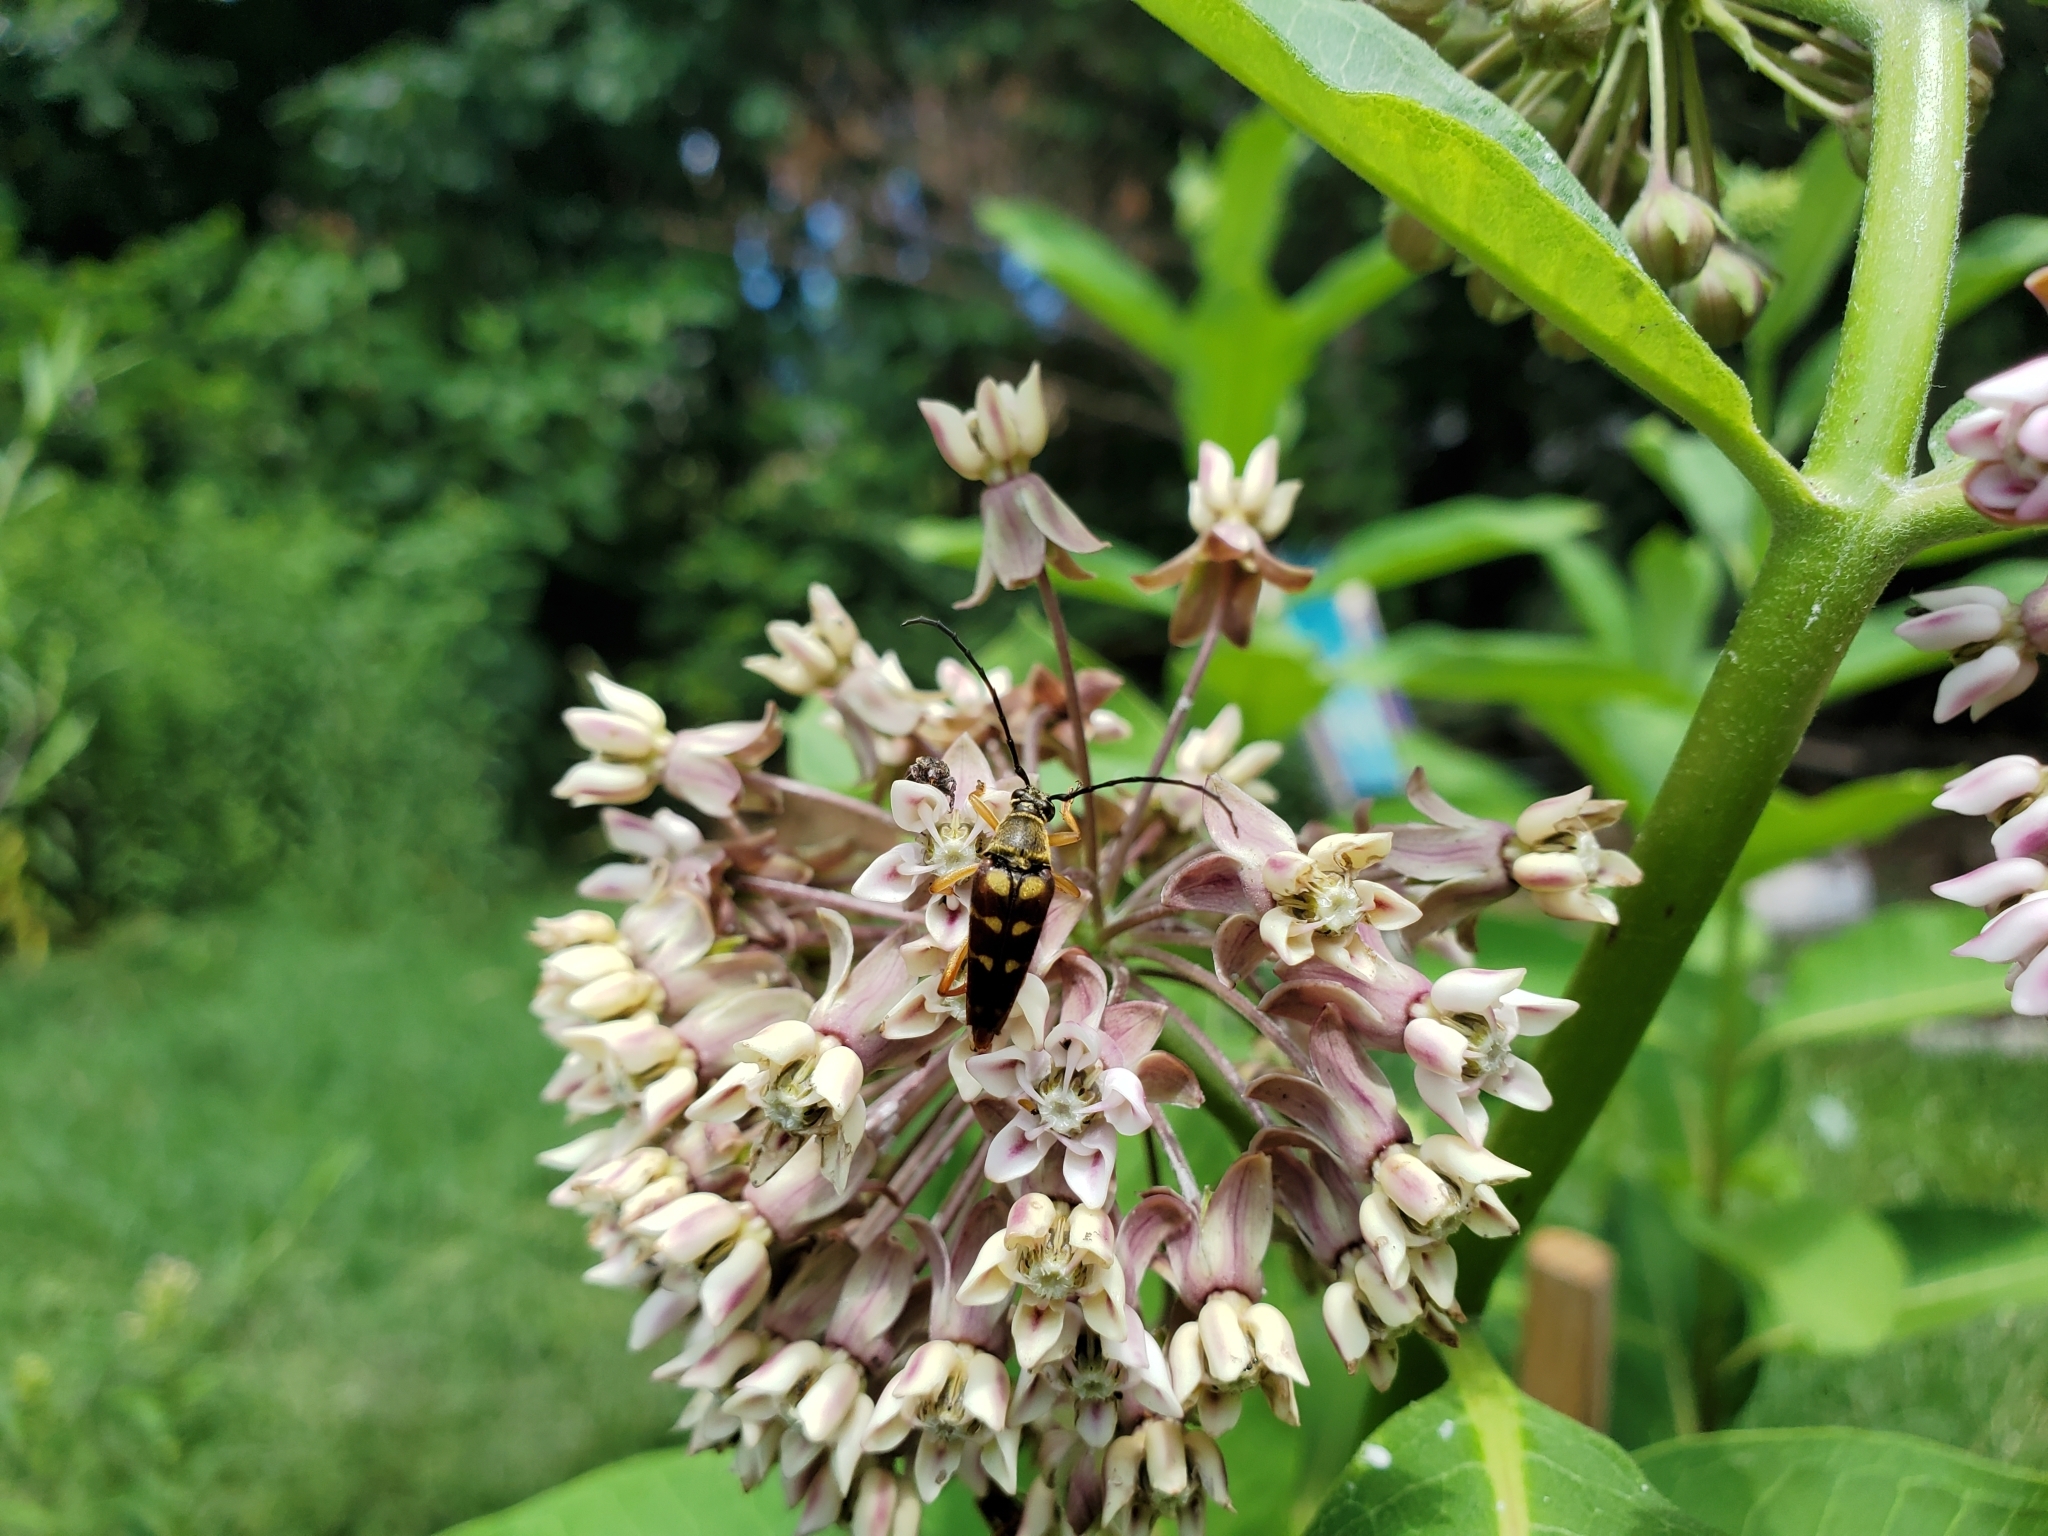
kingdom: Animalia
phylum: Arthropoda
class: Insecta
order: Coleoptera
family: Cerambycidae
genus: Typocerus
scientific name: Typocerus velutinus
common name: Banded longhorn beetle
